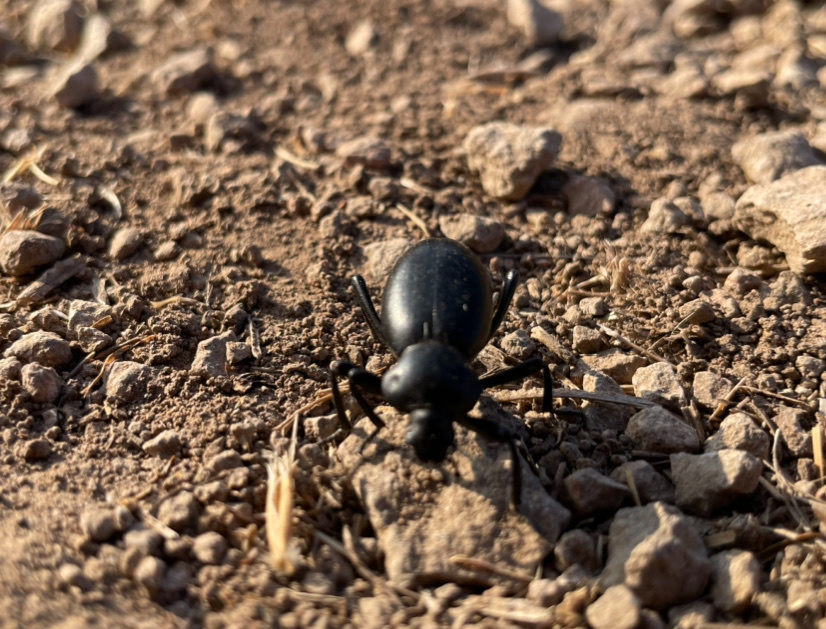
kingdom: Animalia
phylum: Arthropoda
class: Insecta
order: Coleoptera
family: Tenebrionidae
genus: Eleodes
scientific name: Eleodes acuticauda
